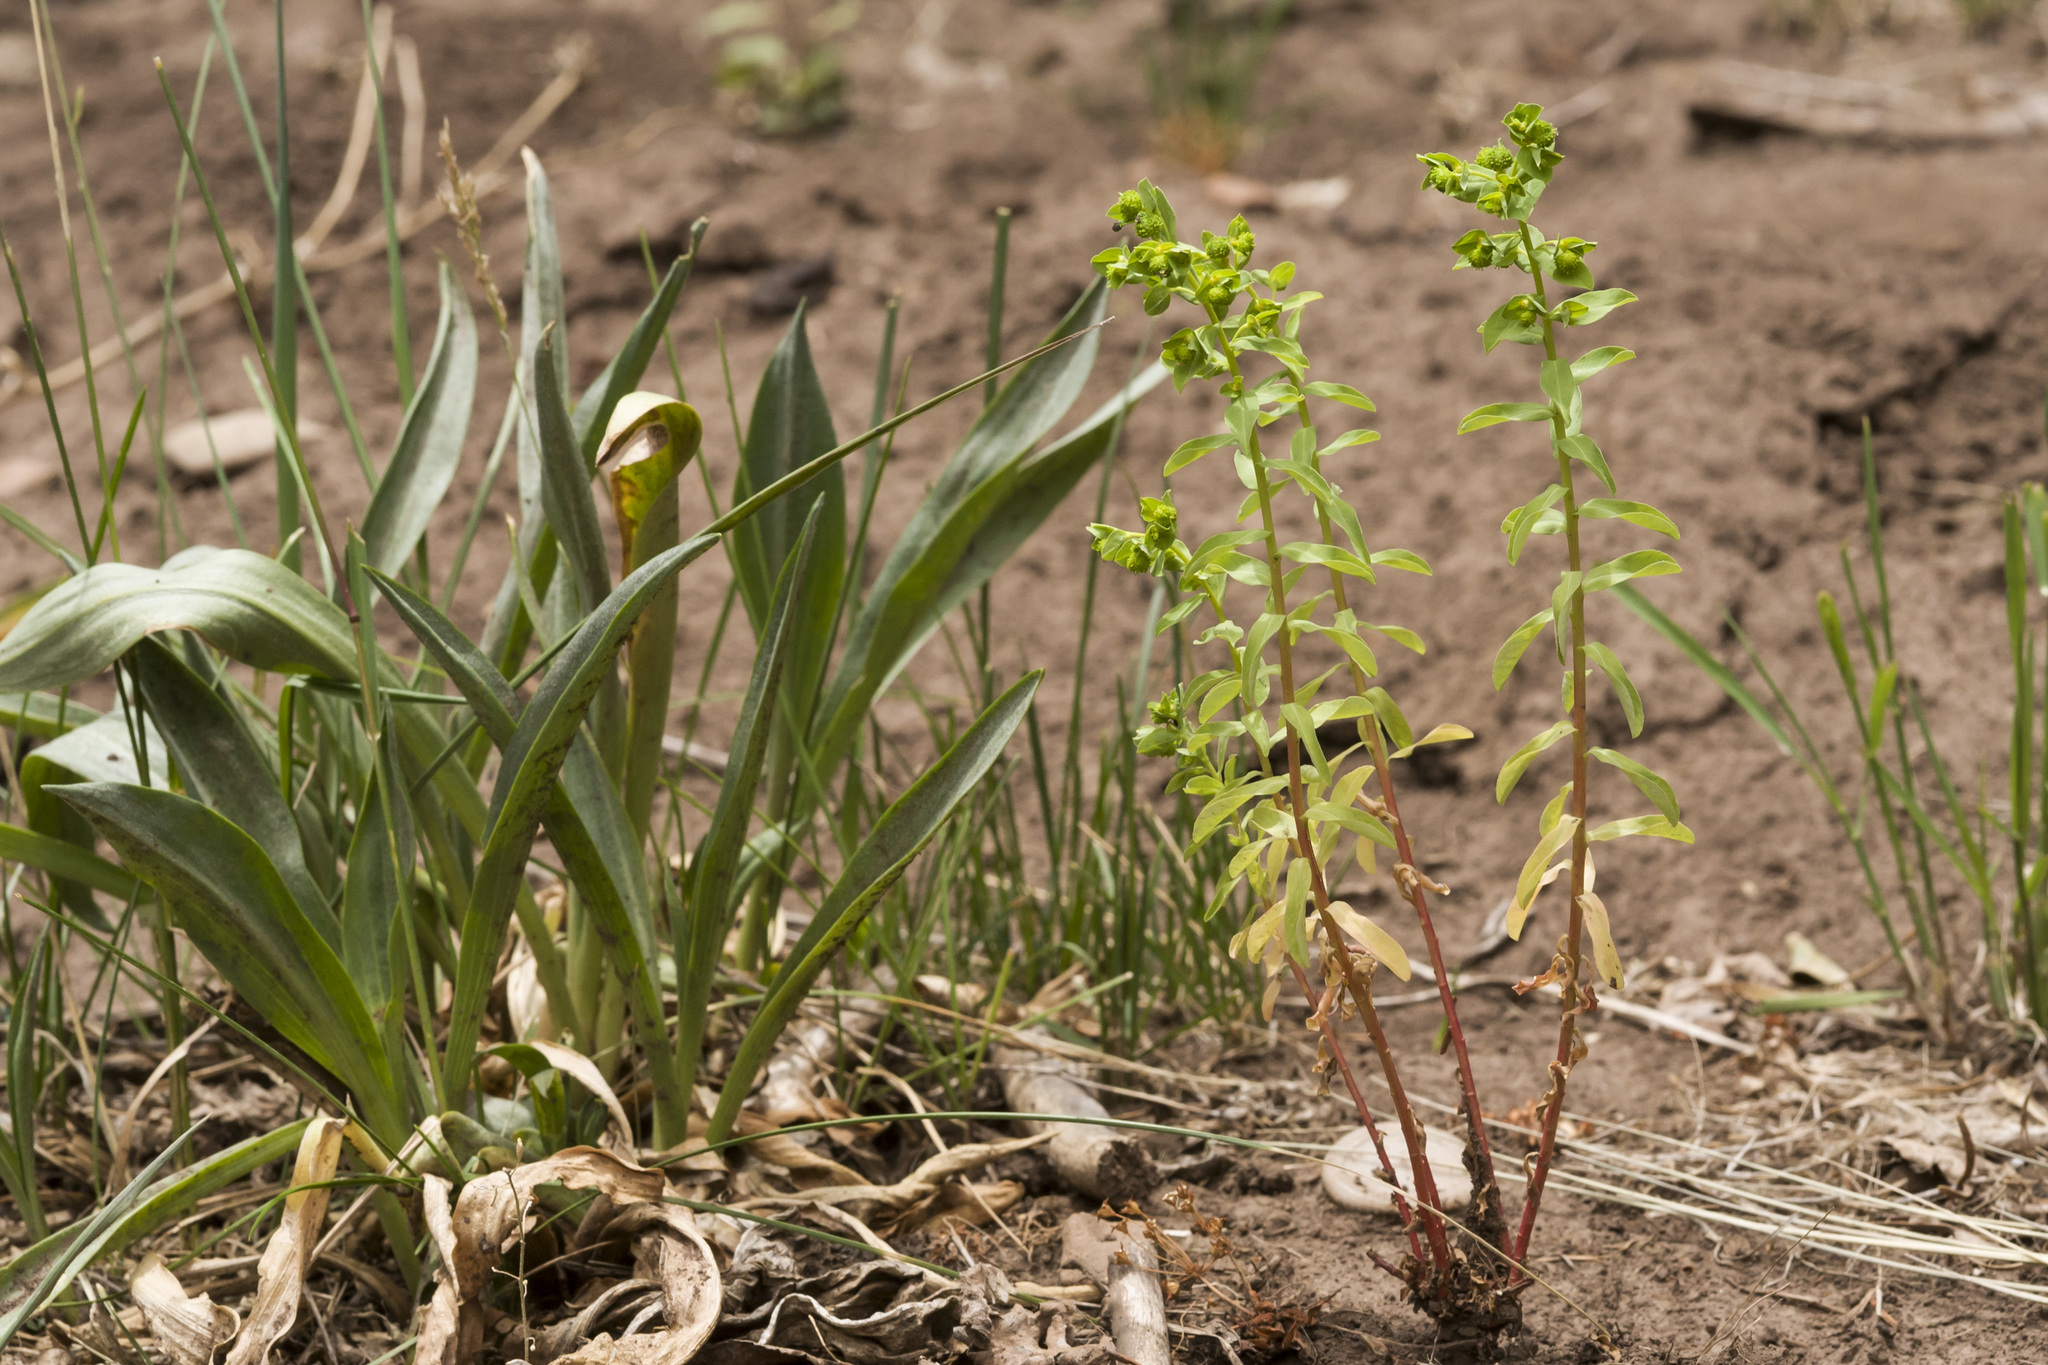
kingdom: Plantae
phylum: Tracheophyta
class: Magnoliopsida
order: Malpighiales
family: Euphorbiaceae
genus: Euphorbia
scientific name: Euphorbia alta
